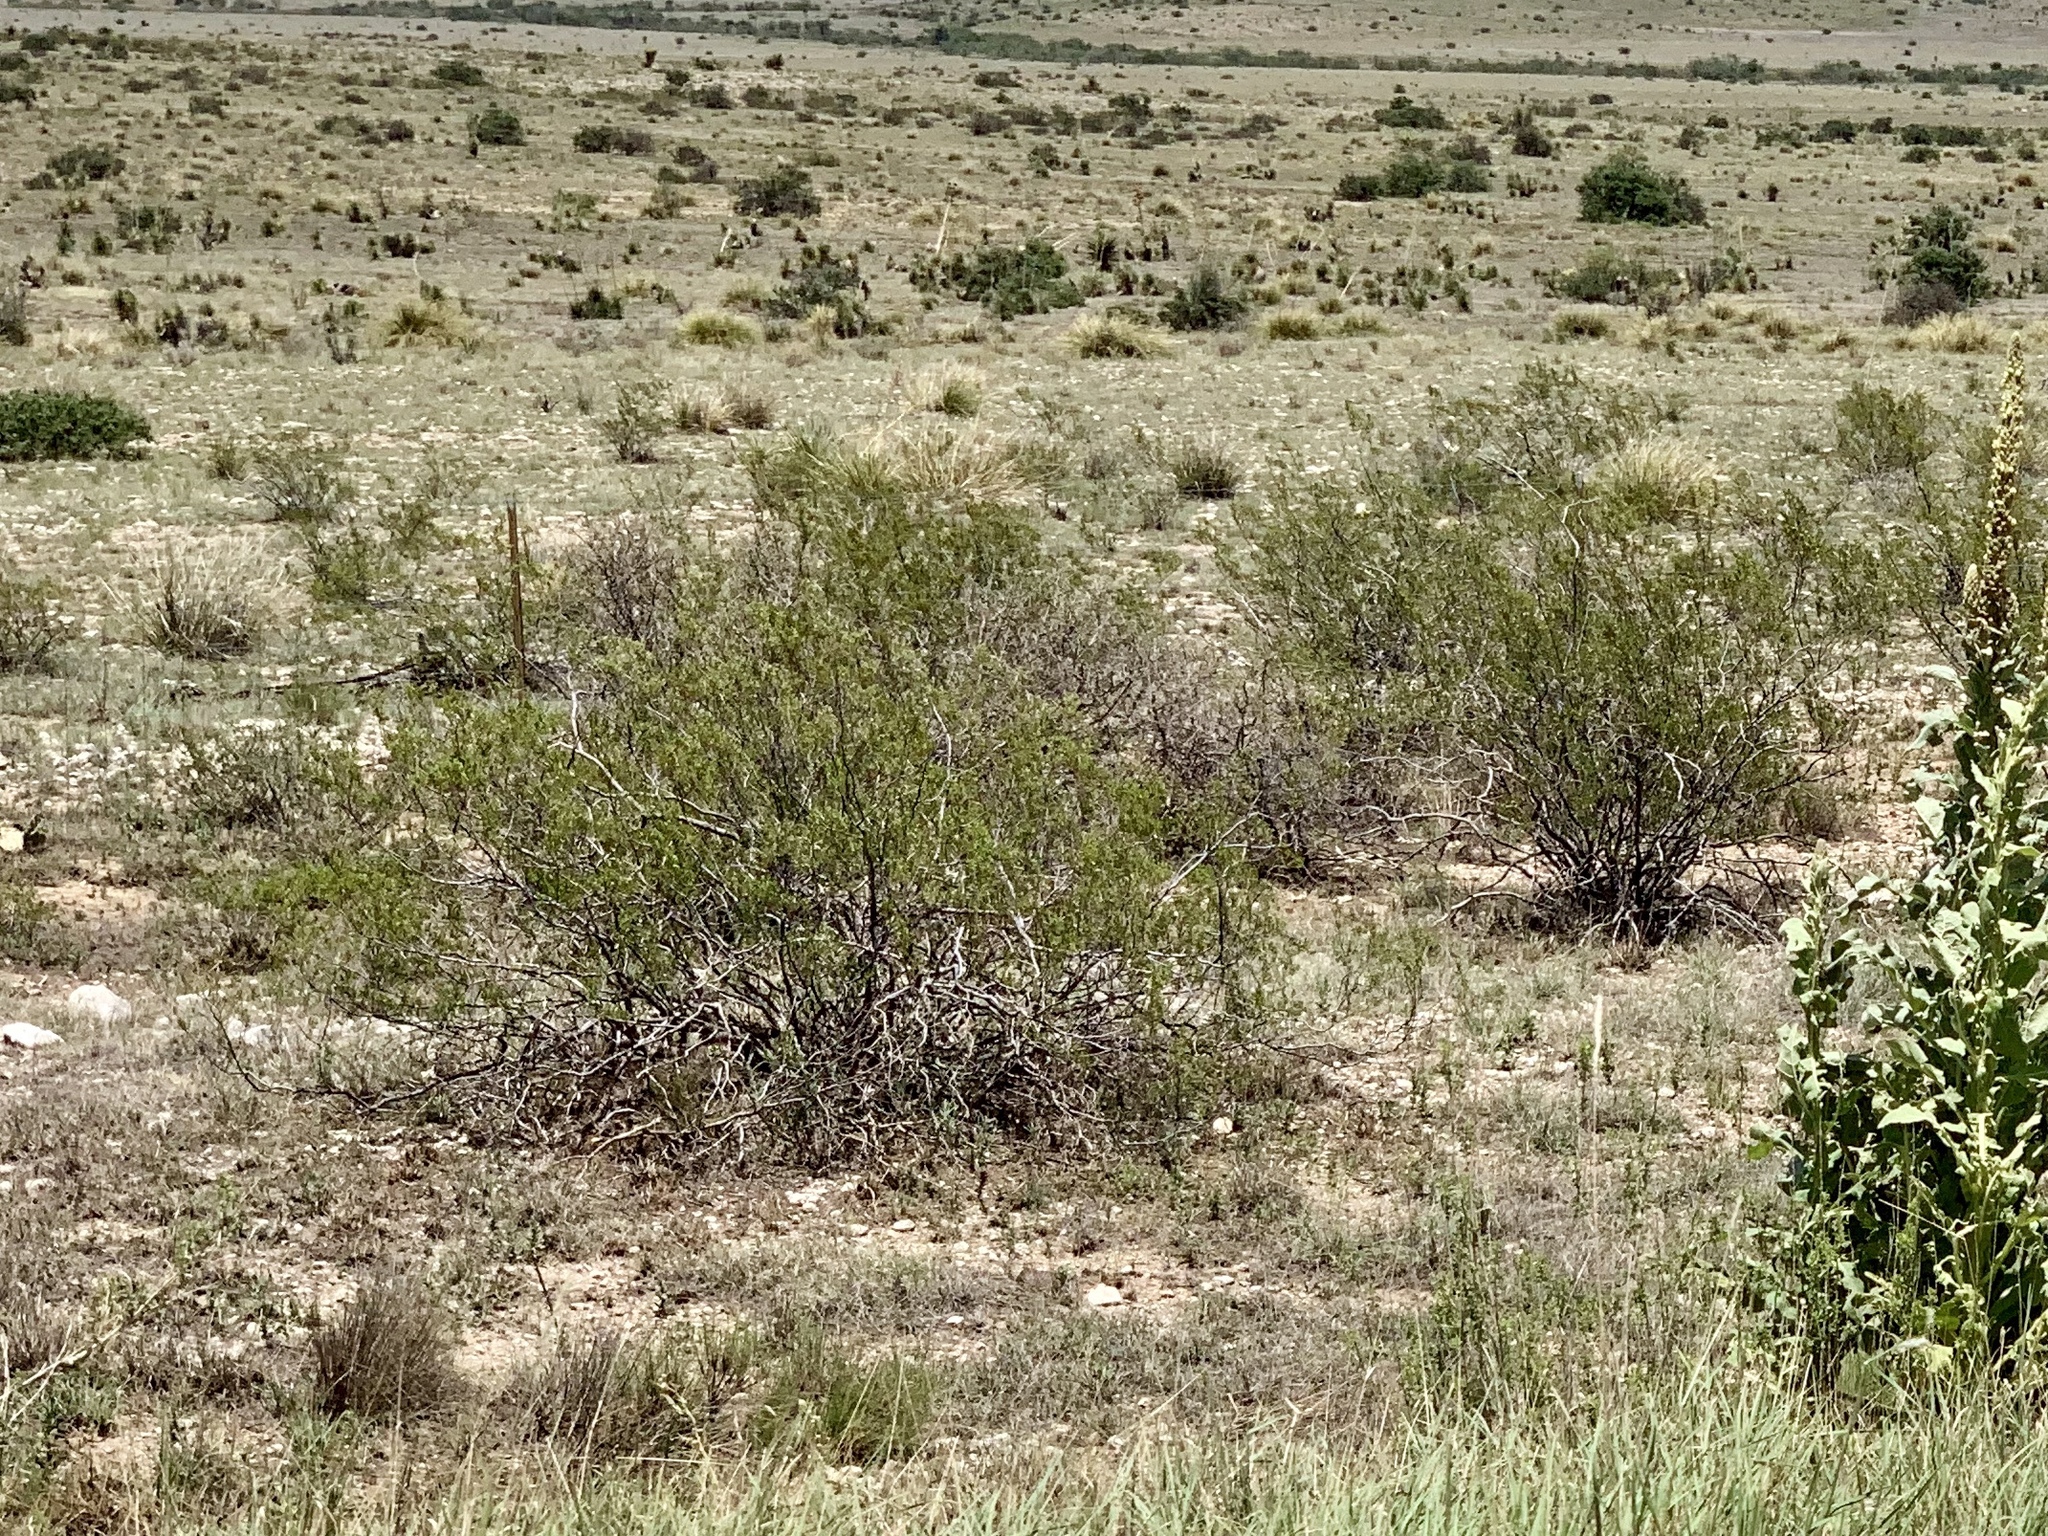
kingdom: Plantae
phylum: Tracheophyta
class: Magnoliopsida
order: Zygophyllales
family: Zygophyllaceae
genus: Larrea
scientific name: Larrea tridentata
